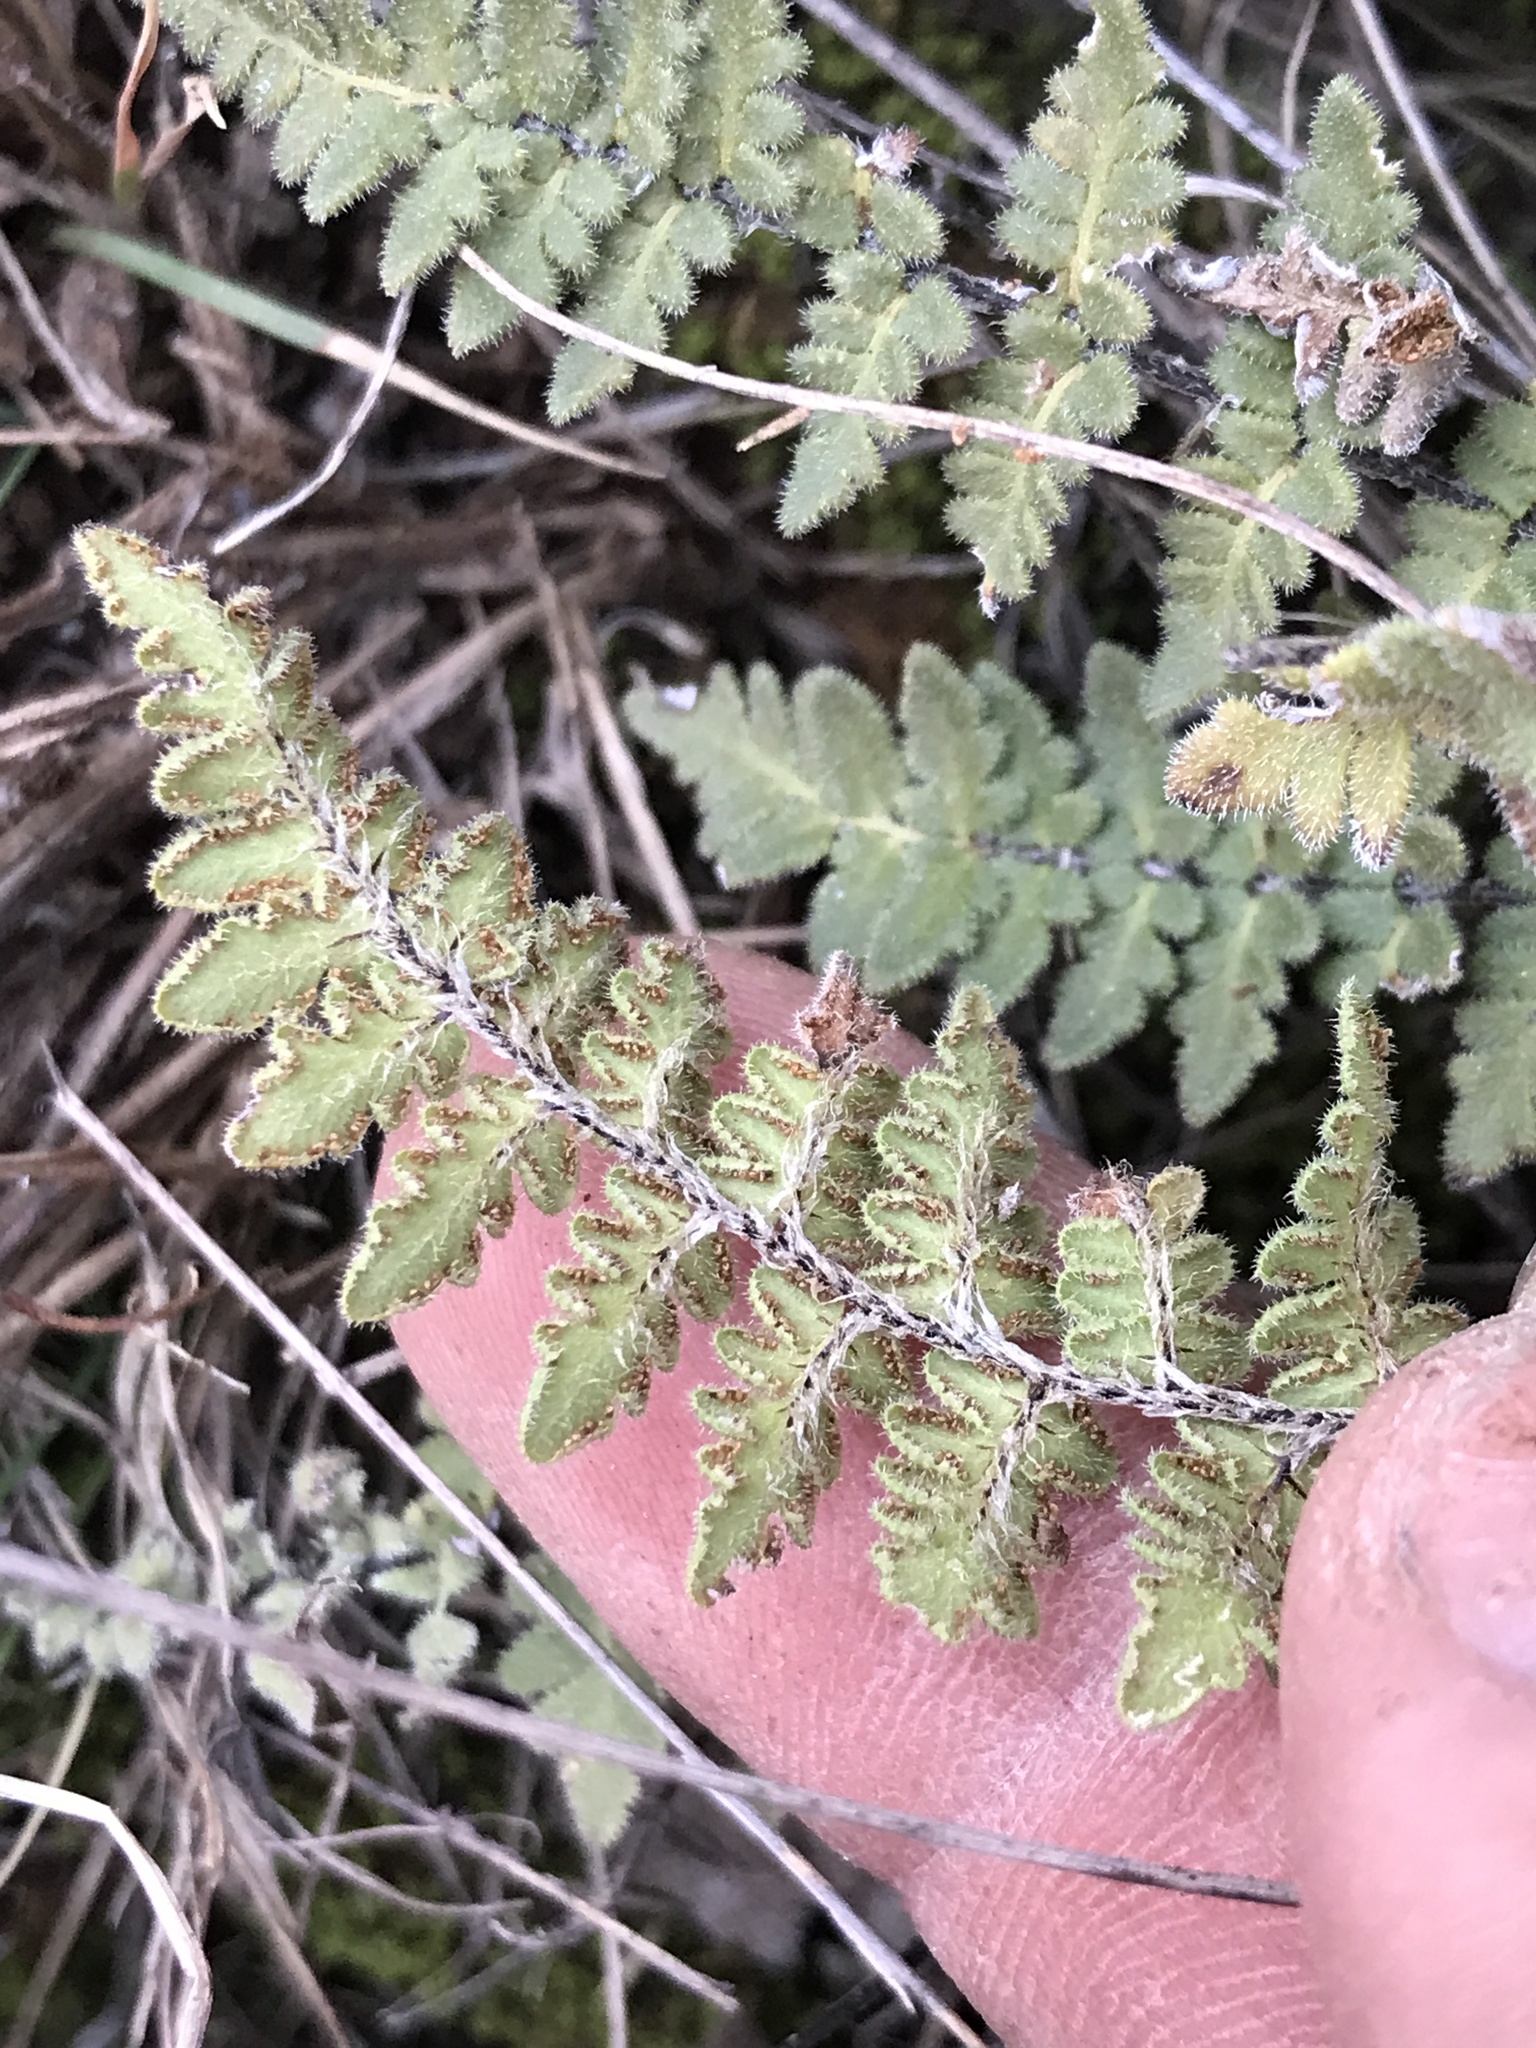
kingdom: Plantae
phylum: Tracheophyta
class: Polypodiopsida
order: Polypodiales
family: Pteridaceae
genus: Myriopteris
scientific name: Myriopteris scabra
